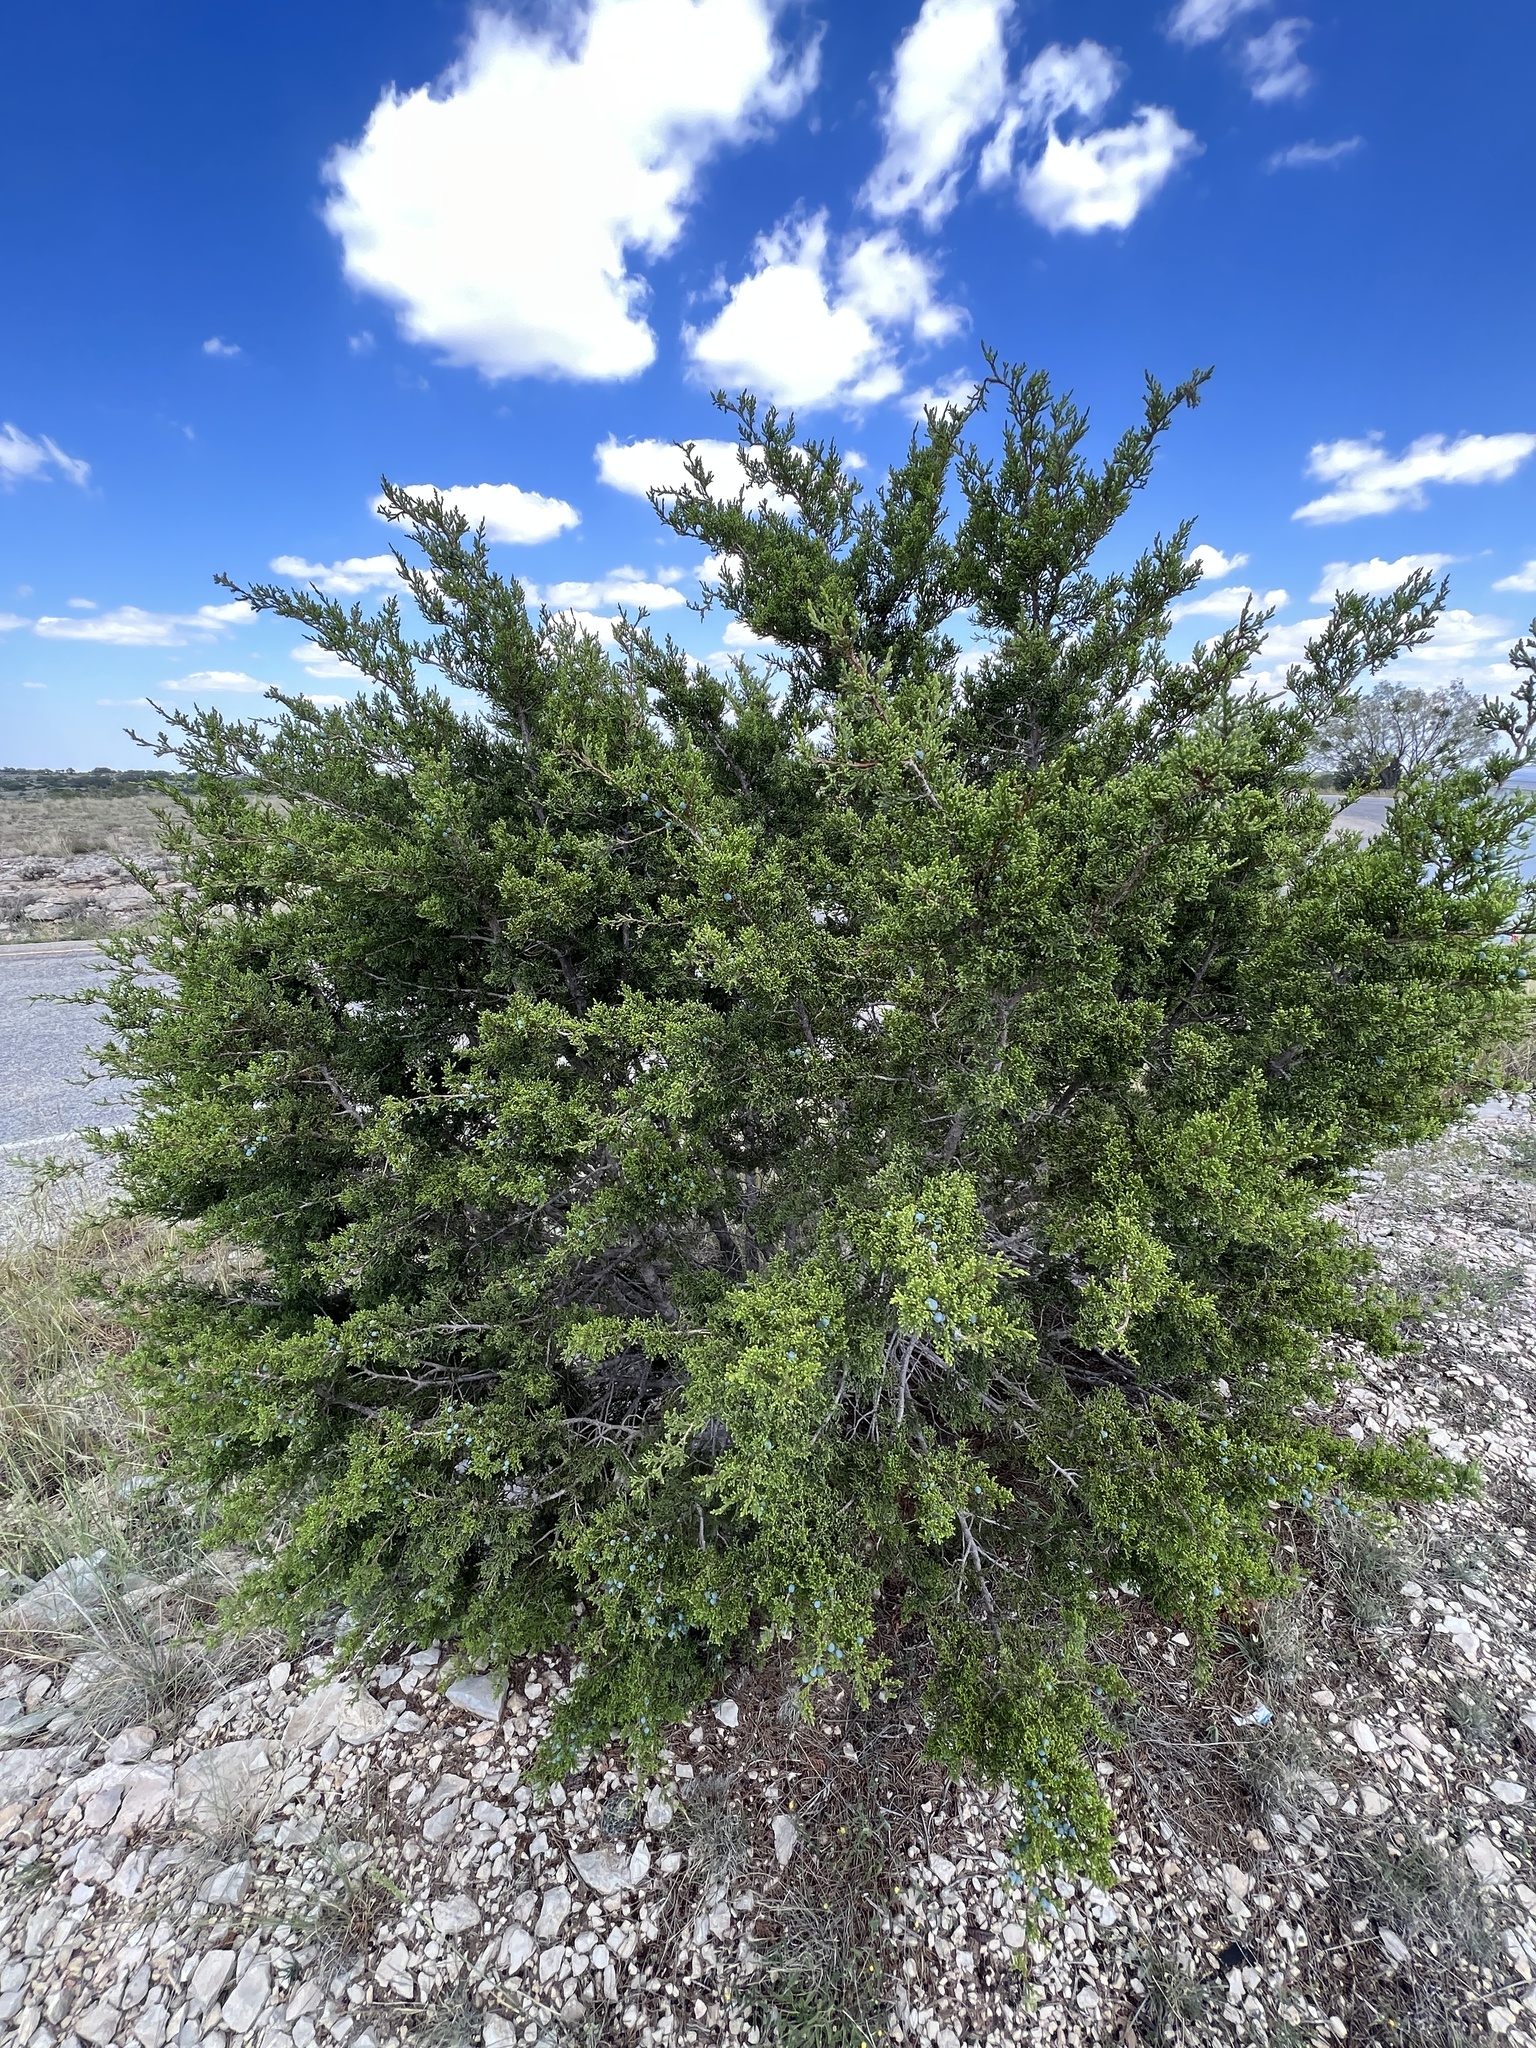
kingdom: Plantae
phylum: Tracheophyta
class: Pinopsida
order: Pinales
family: Cupressaceae
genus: Juniperus
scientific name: Juniperus ashei
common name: Mexican juniper
